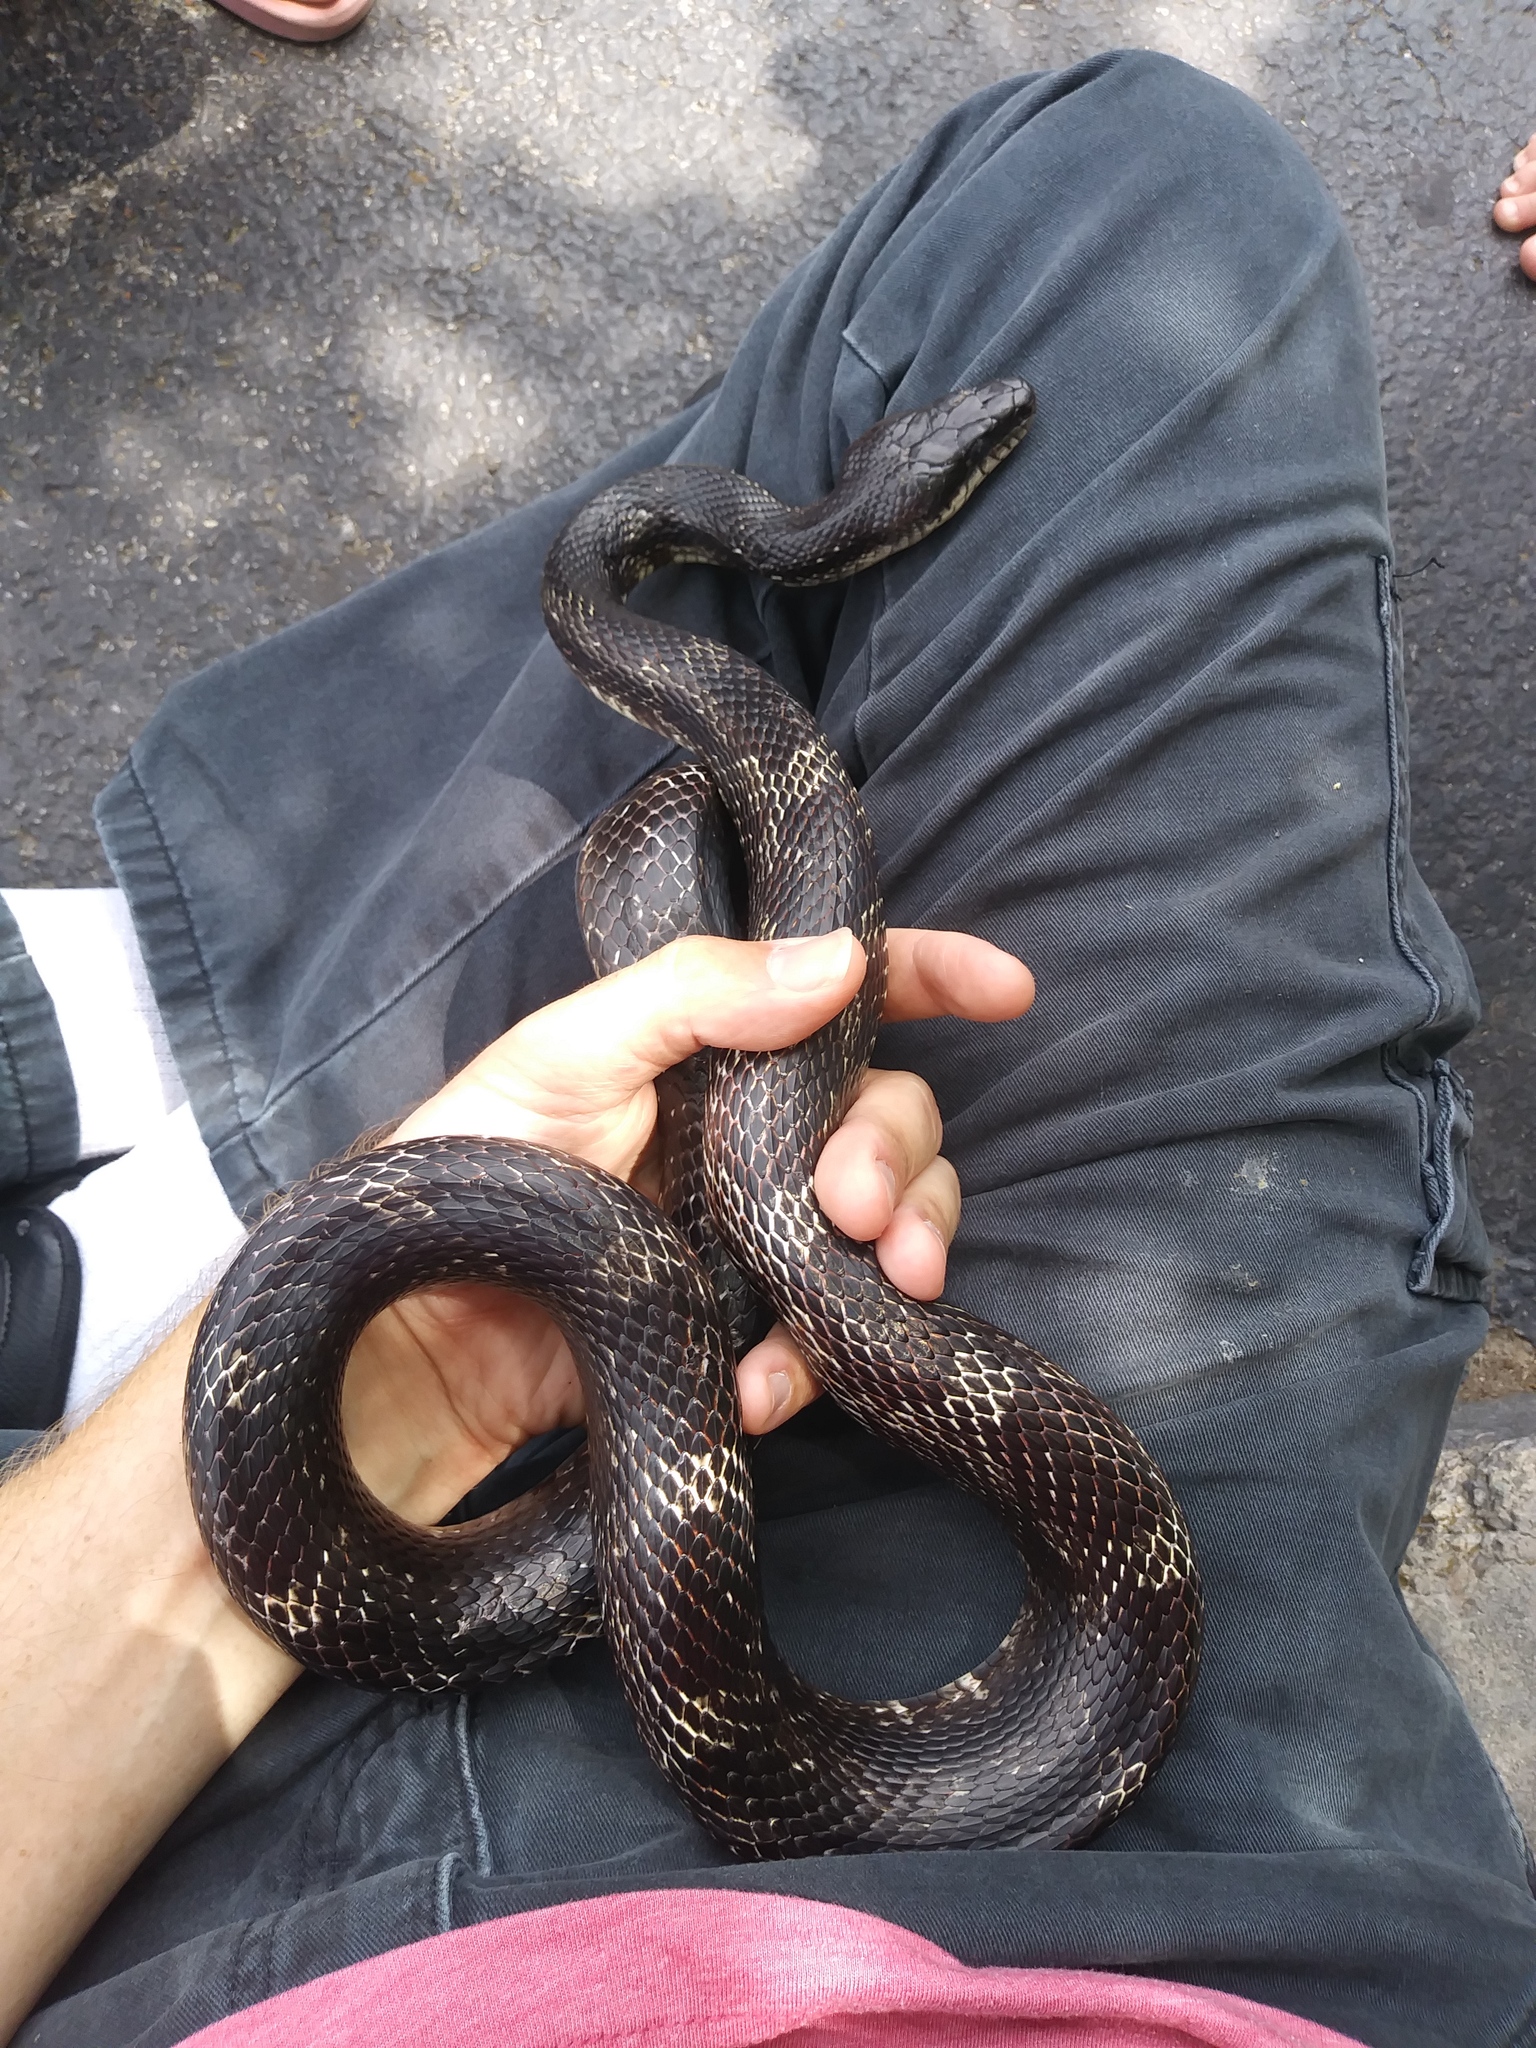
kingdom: Animalia
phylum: Chordata
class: Squamata
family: Colubridae
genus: Pantherophis
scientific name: Pantherophis spiloides
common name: Gray rat snake
